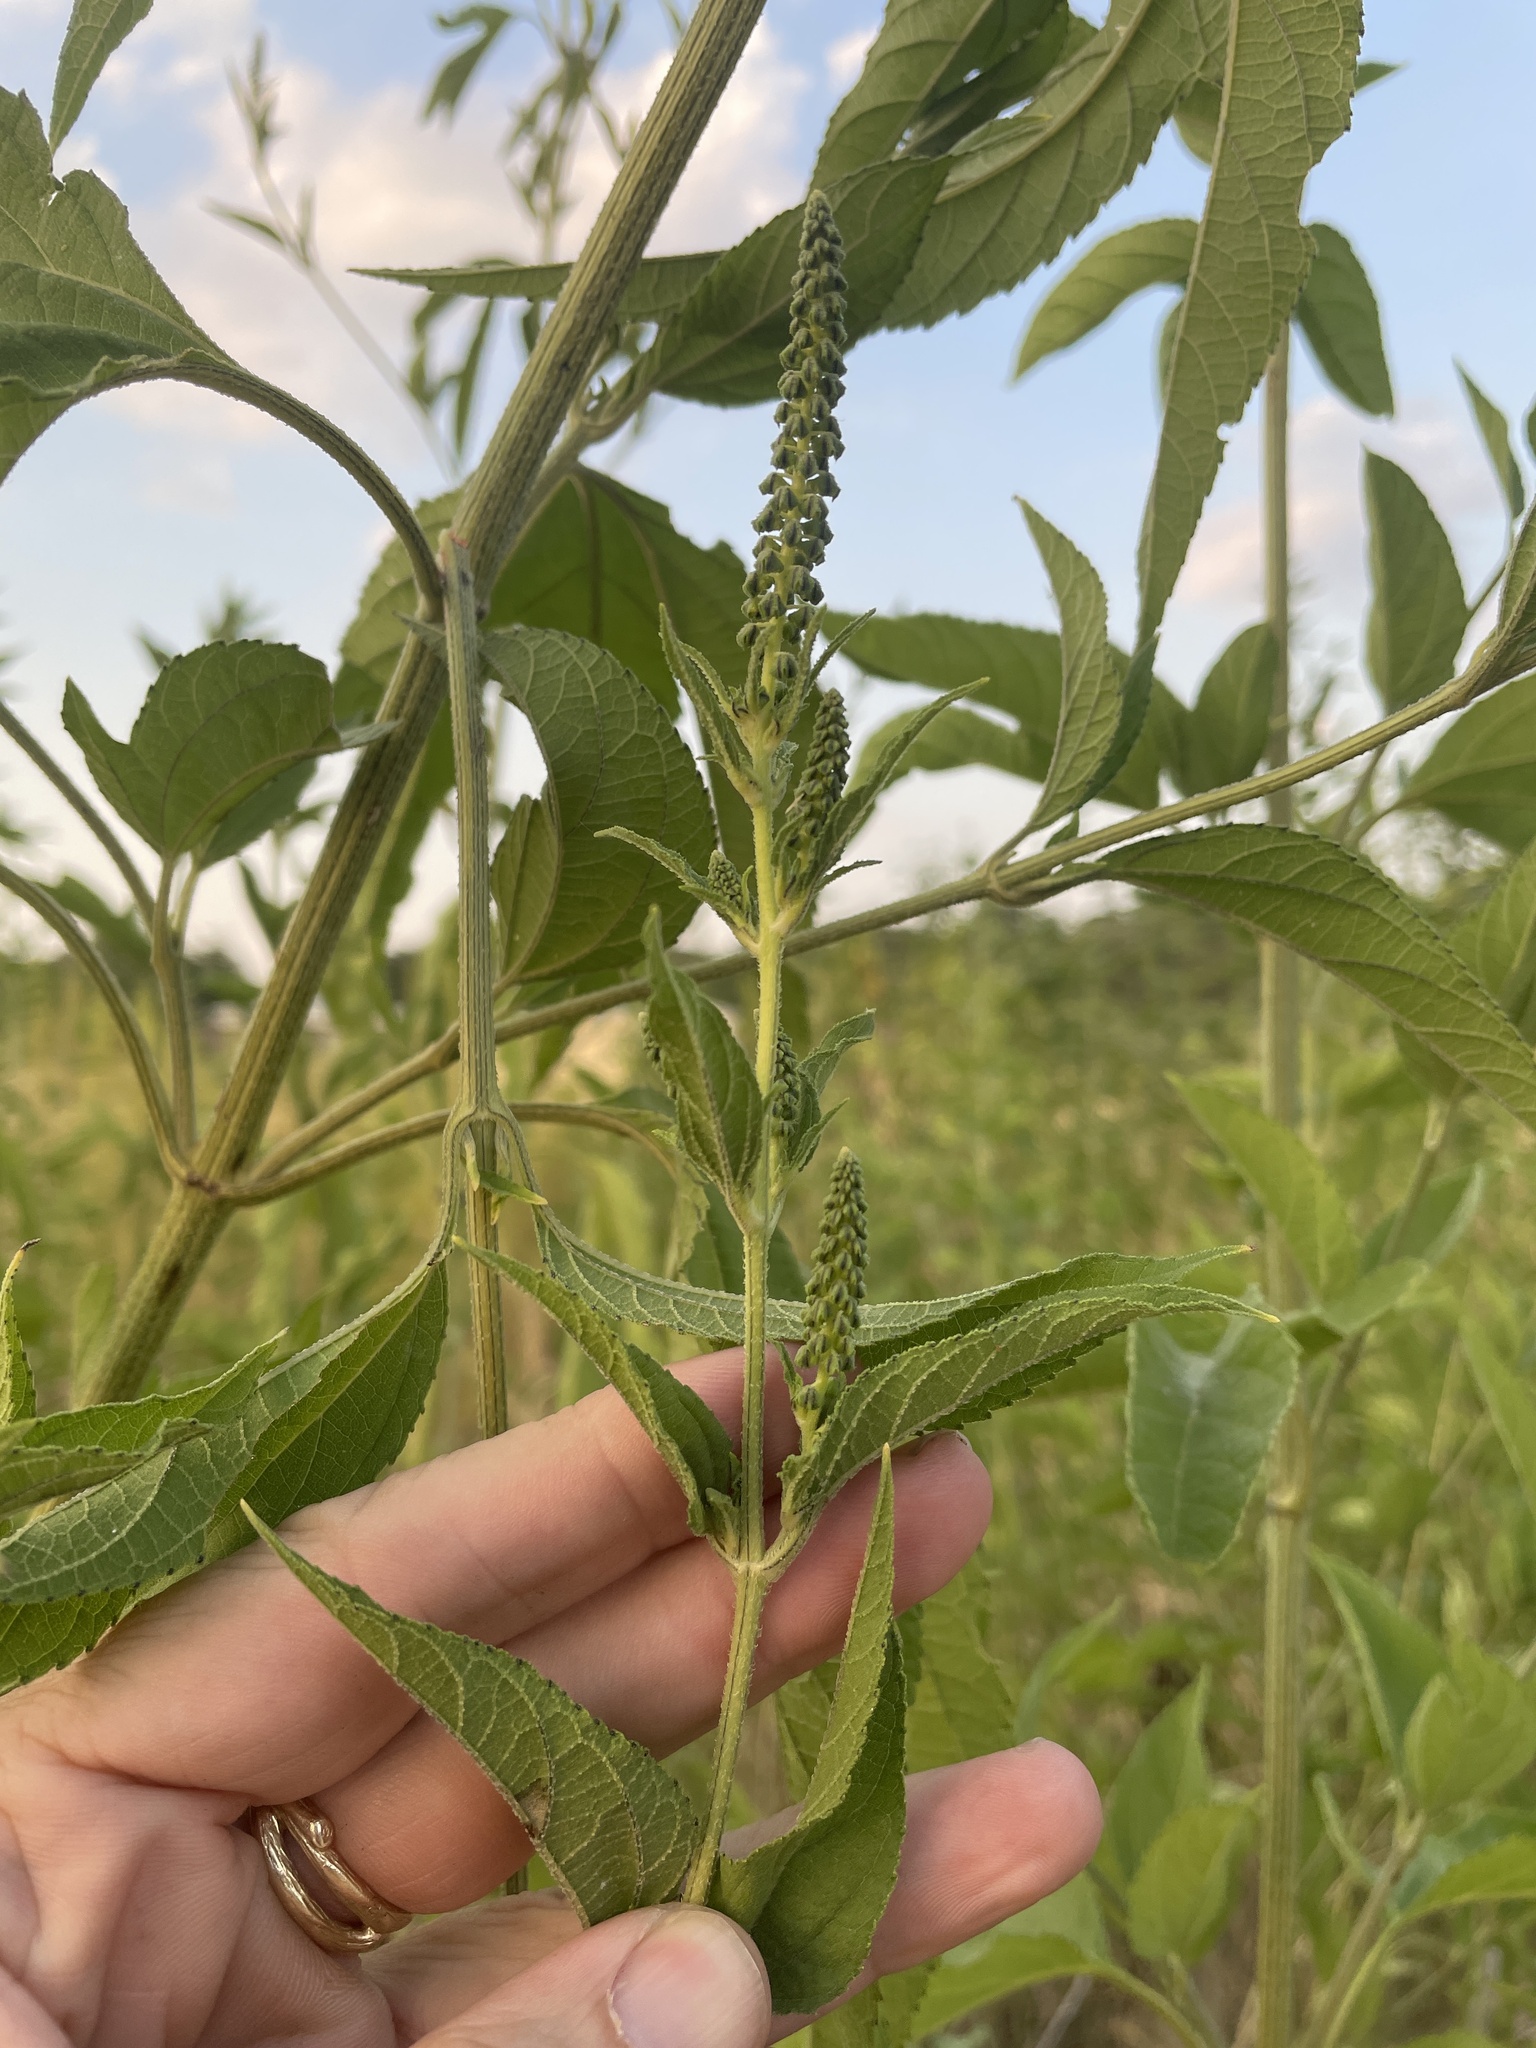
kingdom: Plantae
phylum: Tracheophyta
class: Magnoliopsida
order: Asterales
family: Asteraceae
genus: Ambrosia
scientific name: Ambrosia trifida
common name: Giant ragweed
